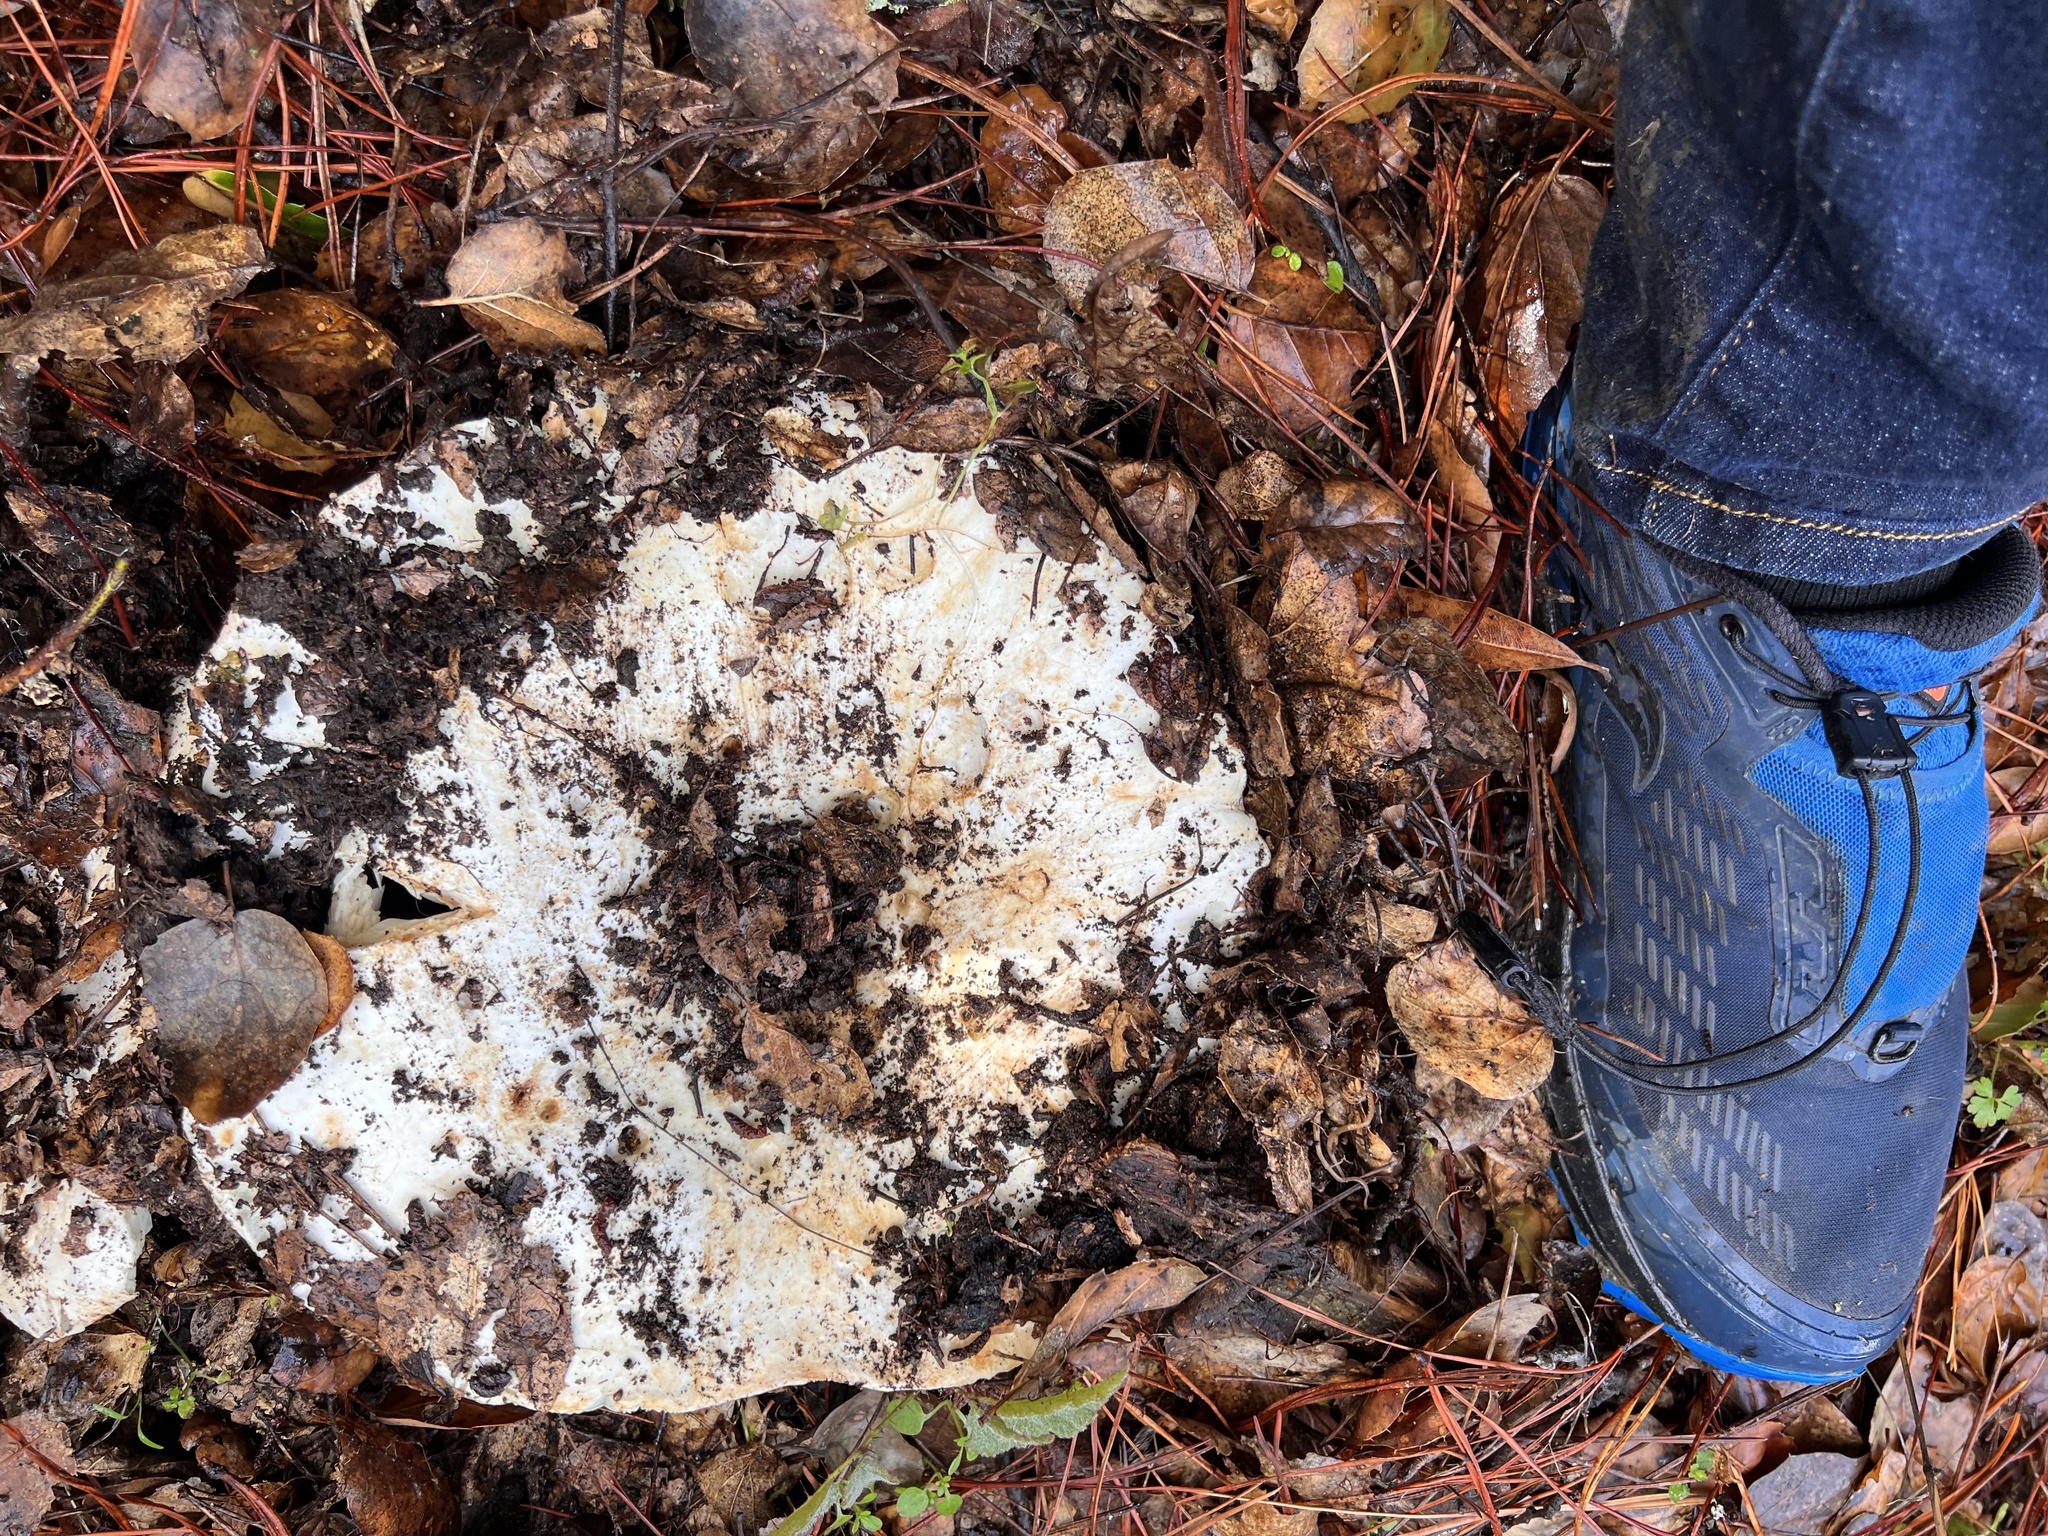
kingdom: Fungi
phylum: Basidiomycota
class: Agaricomycetes
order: Russulales
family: Russulaceae
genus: Russula
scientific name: Russula brevipes
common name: Short-stemmed russula
